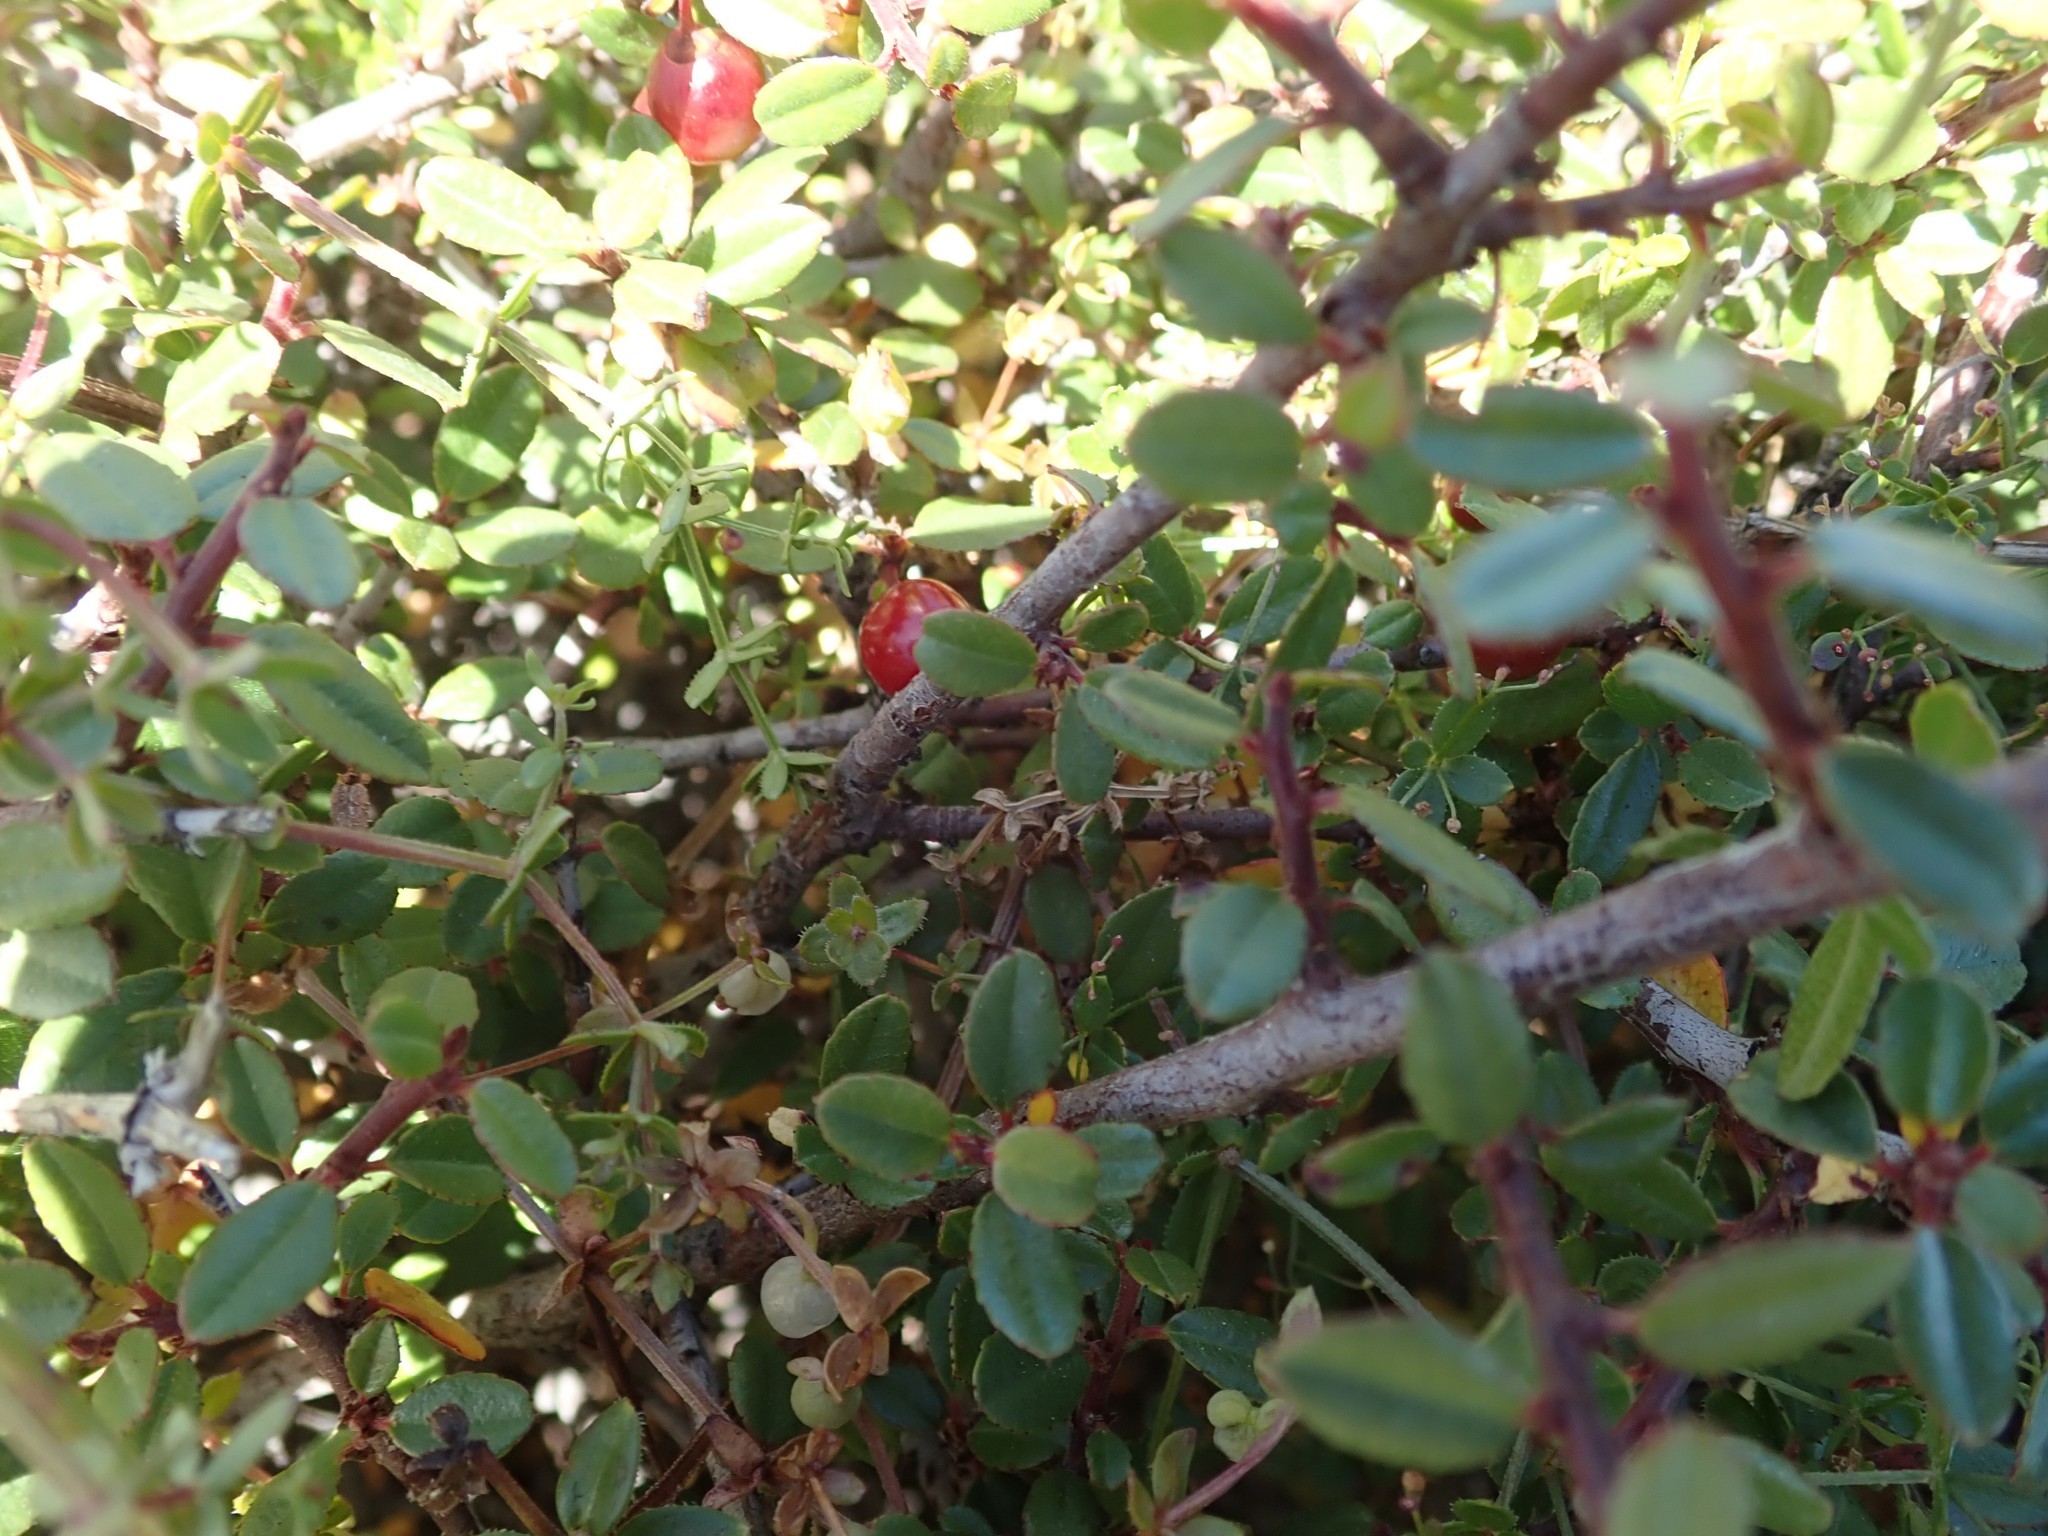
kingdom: Plantae
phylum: Tracheophyta
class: Magnoliopsida
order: Rosales
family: Rhamnaceae
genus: Endotropis
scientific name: Endotropis crocea
